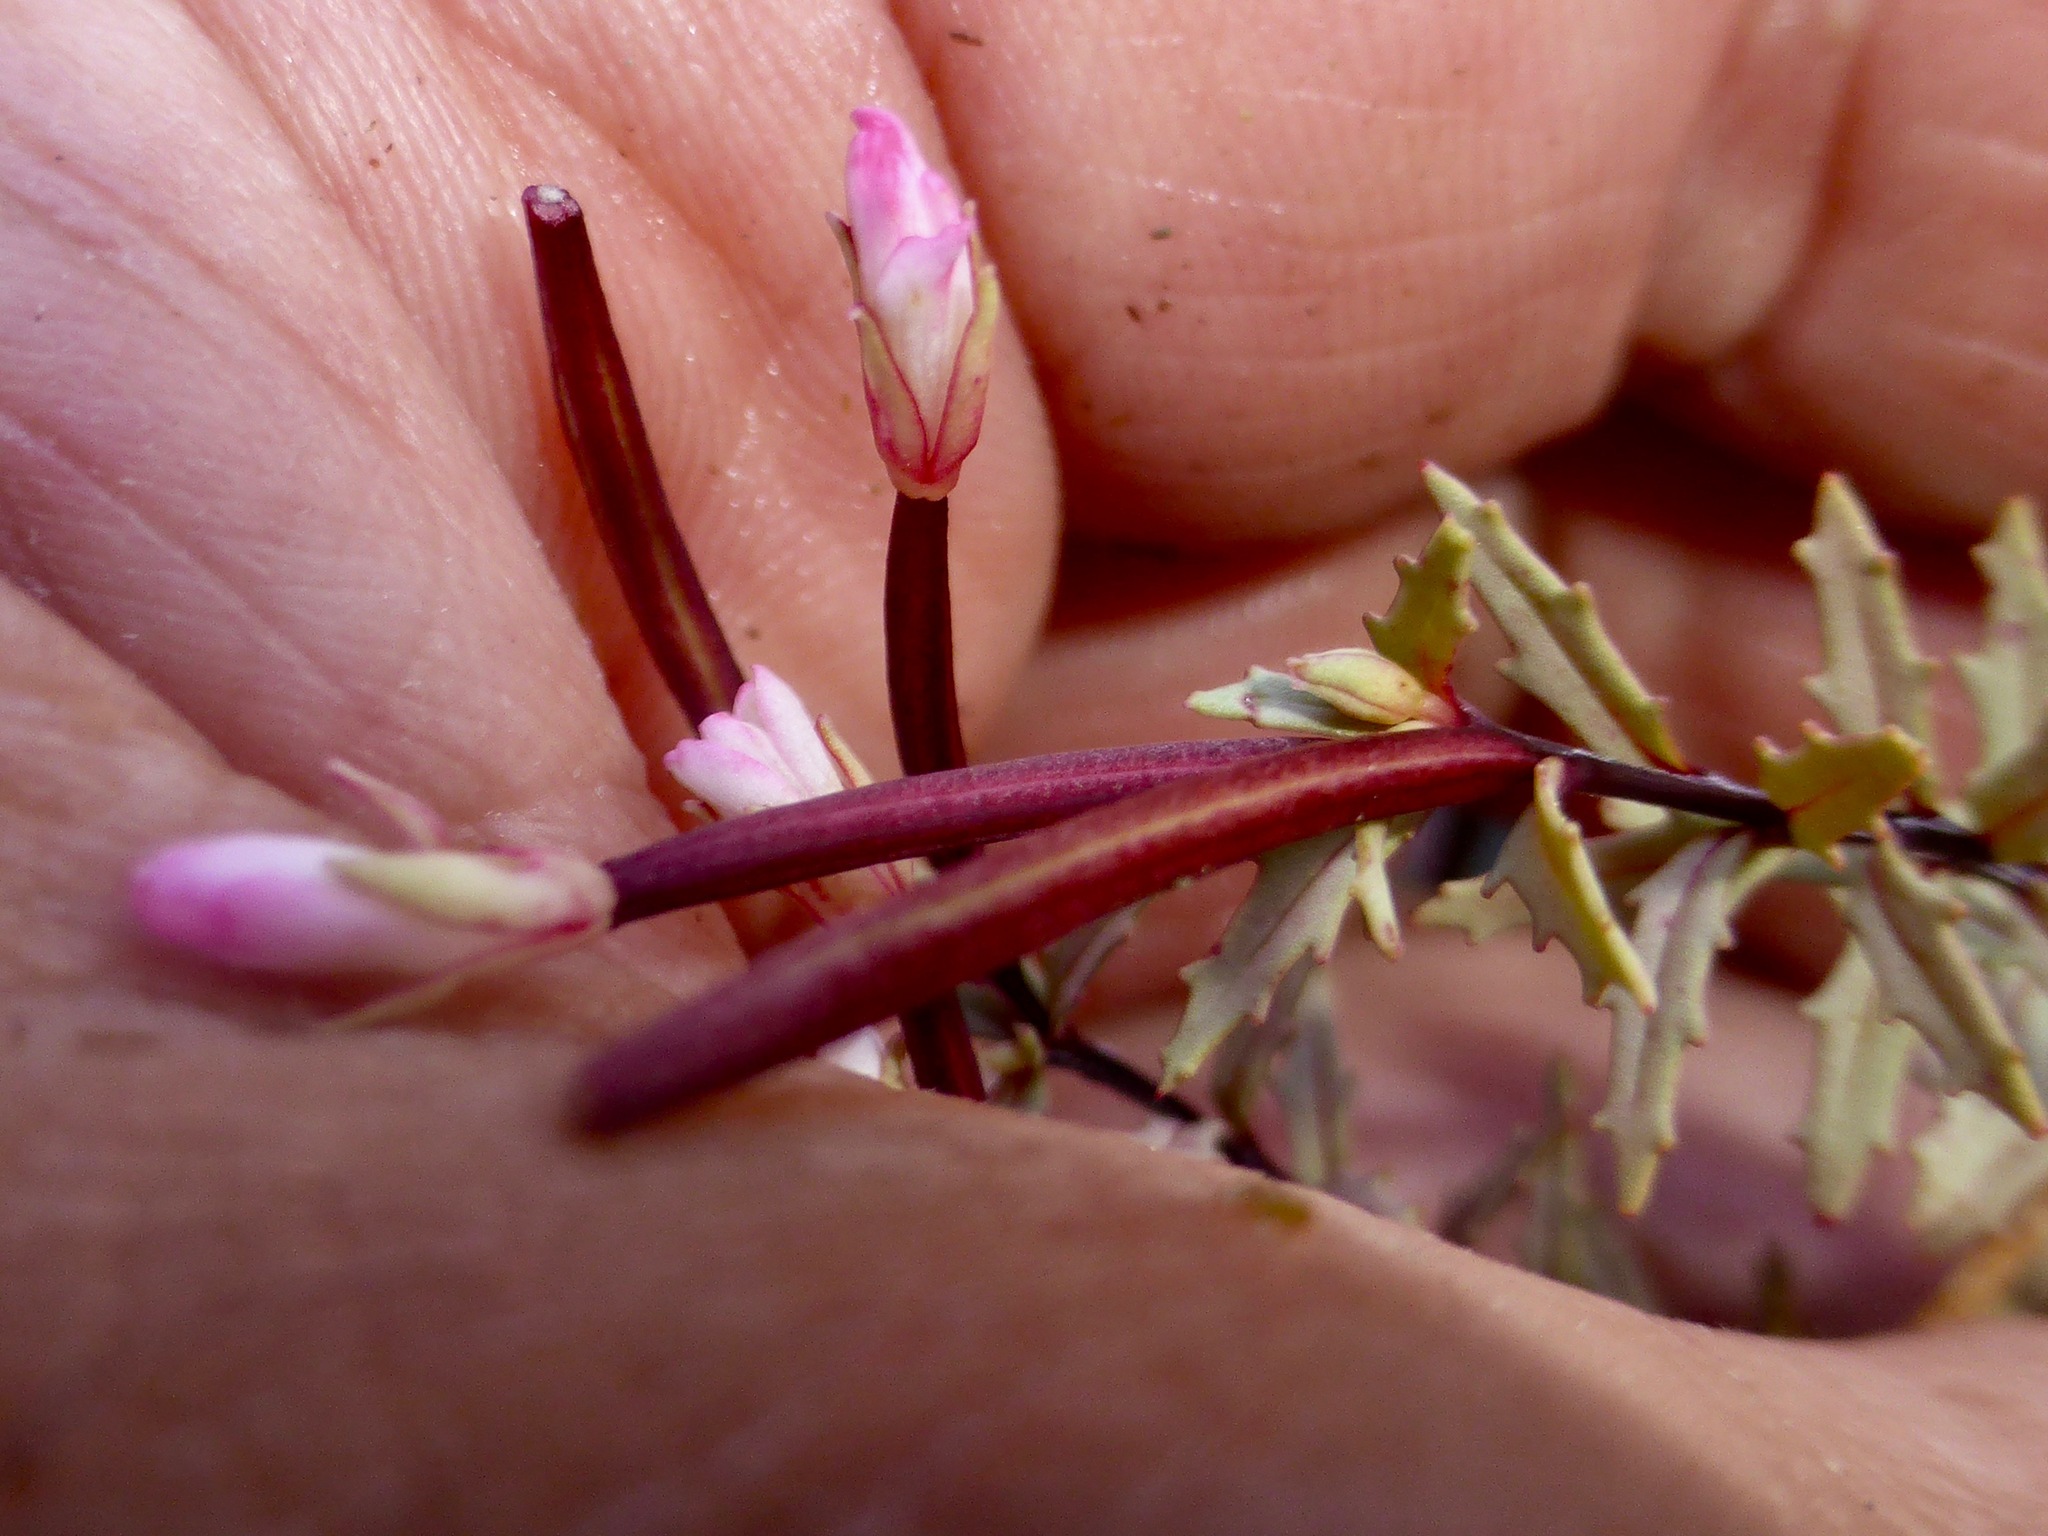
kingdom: Plantae
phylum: Tracheophyta
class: Magnoliopsida
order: Myrtales
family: Onagraceae
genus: Epilobium
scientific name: Epilobium melanocaulon
